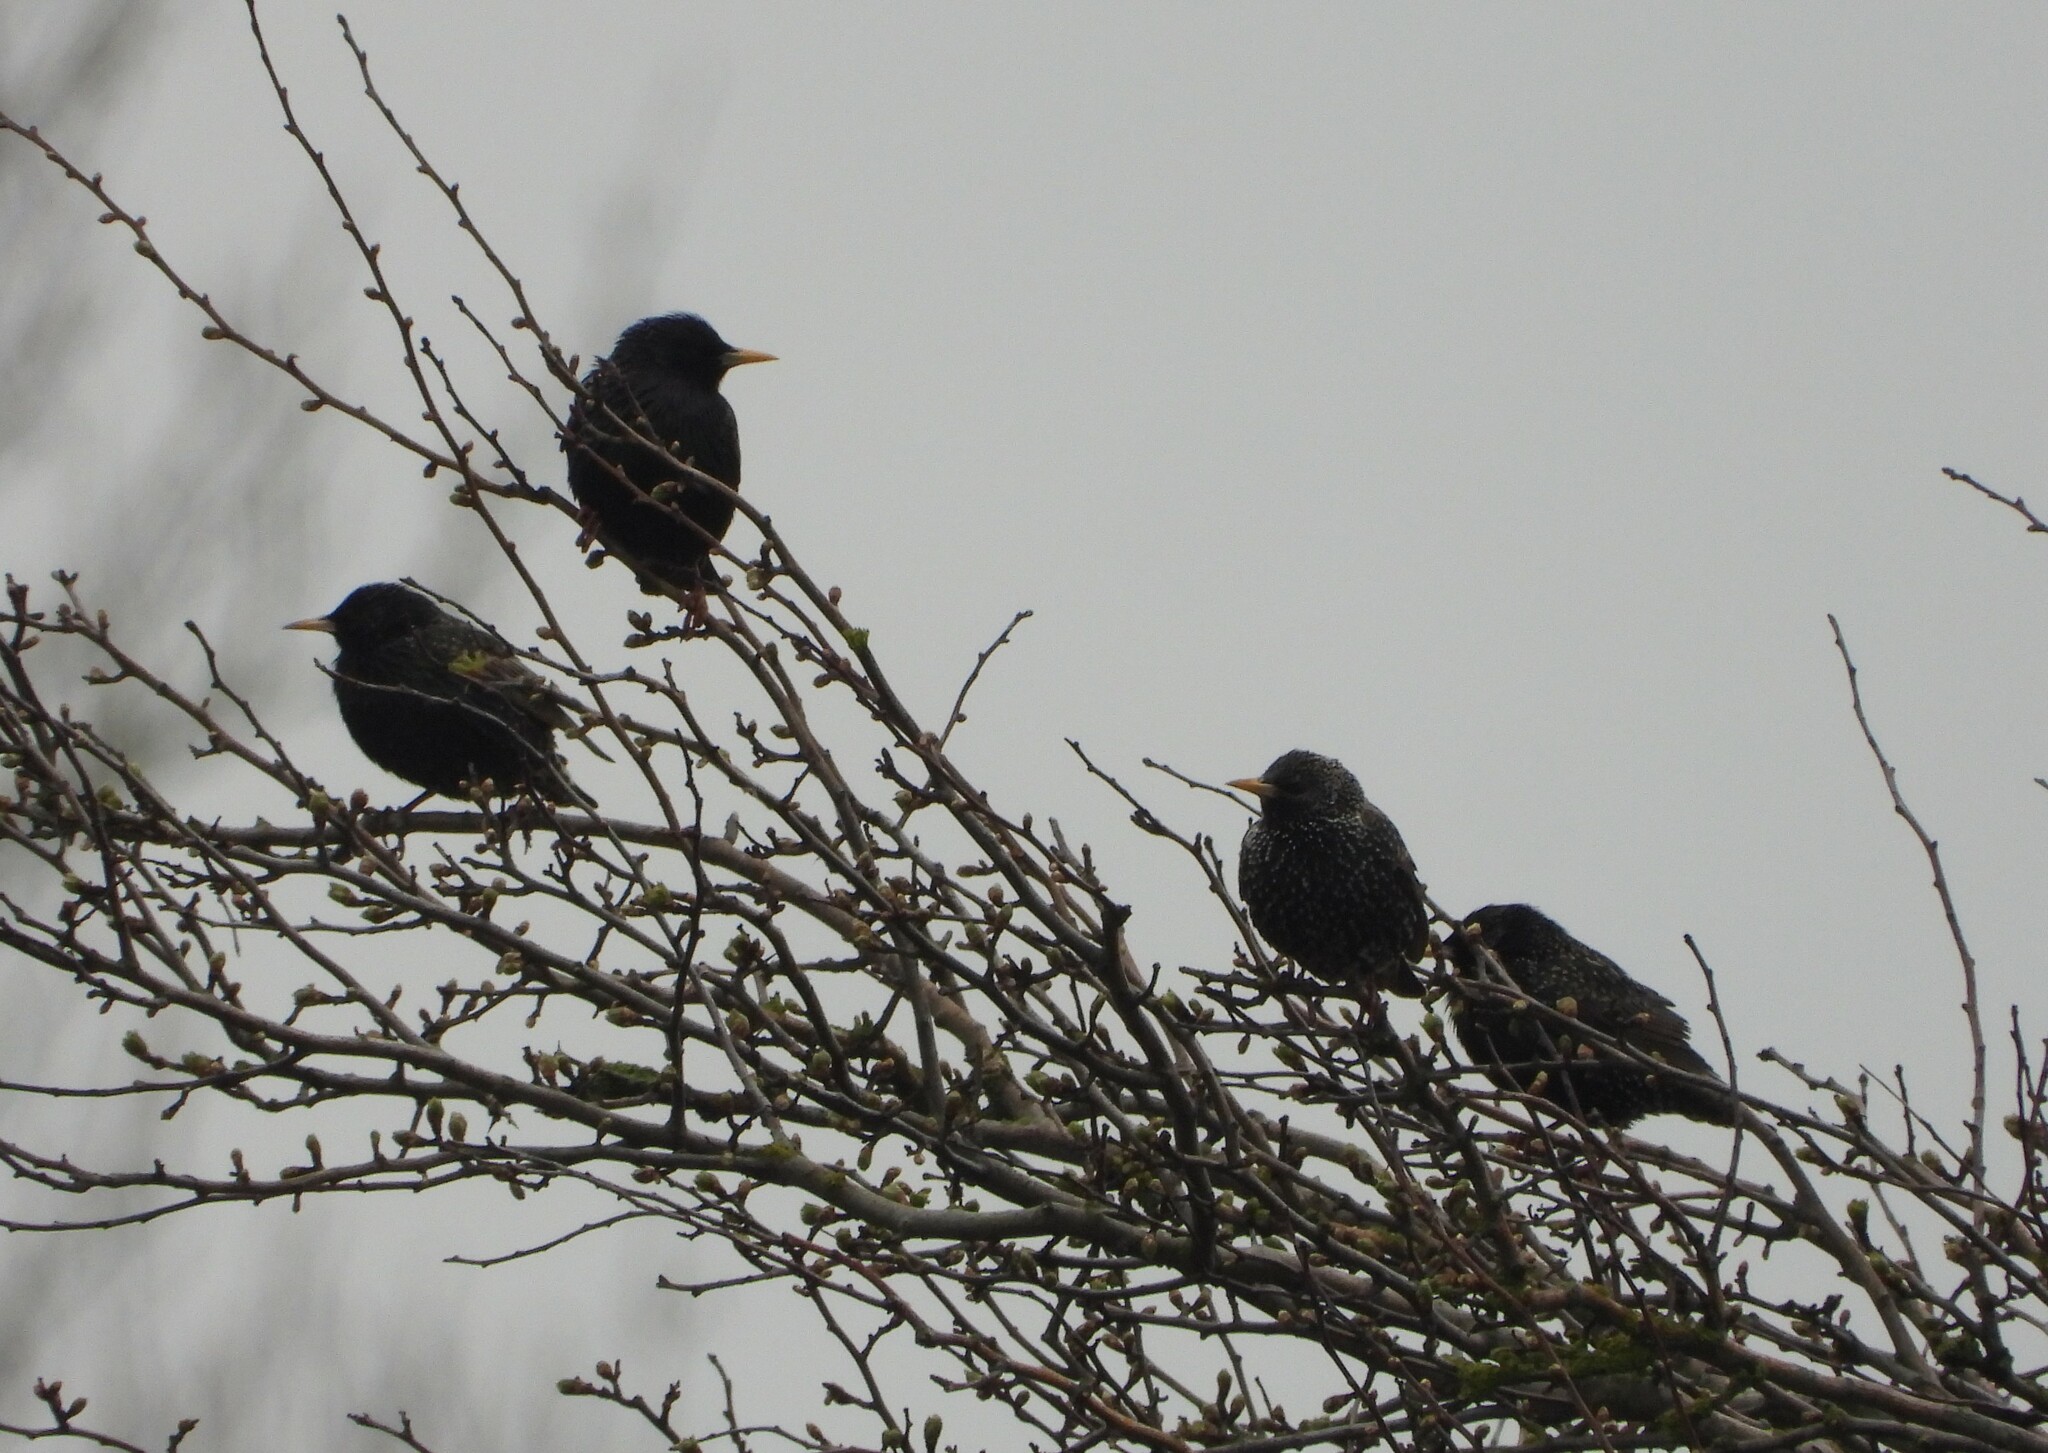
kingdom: Animalia
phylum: Chordata
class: Aves
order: Passeriformes
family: Sturnidae
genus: Sturnus
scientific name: Sturnus vulgaris
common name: Common starling
